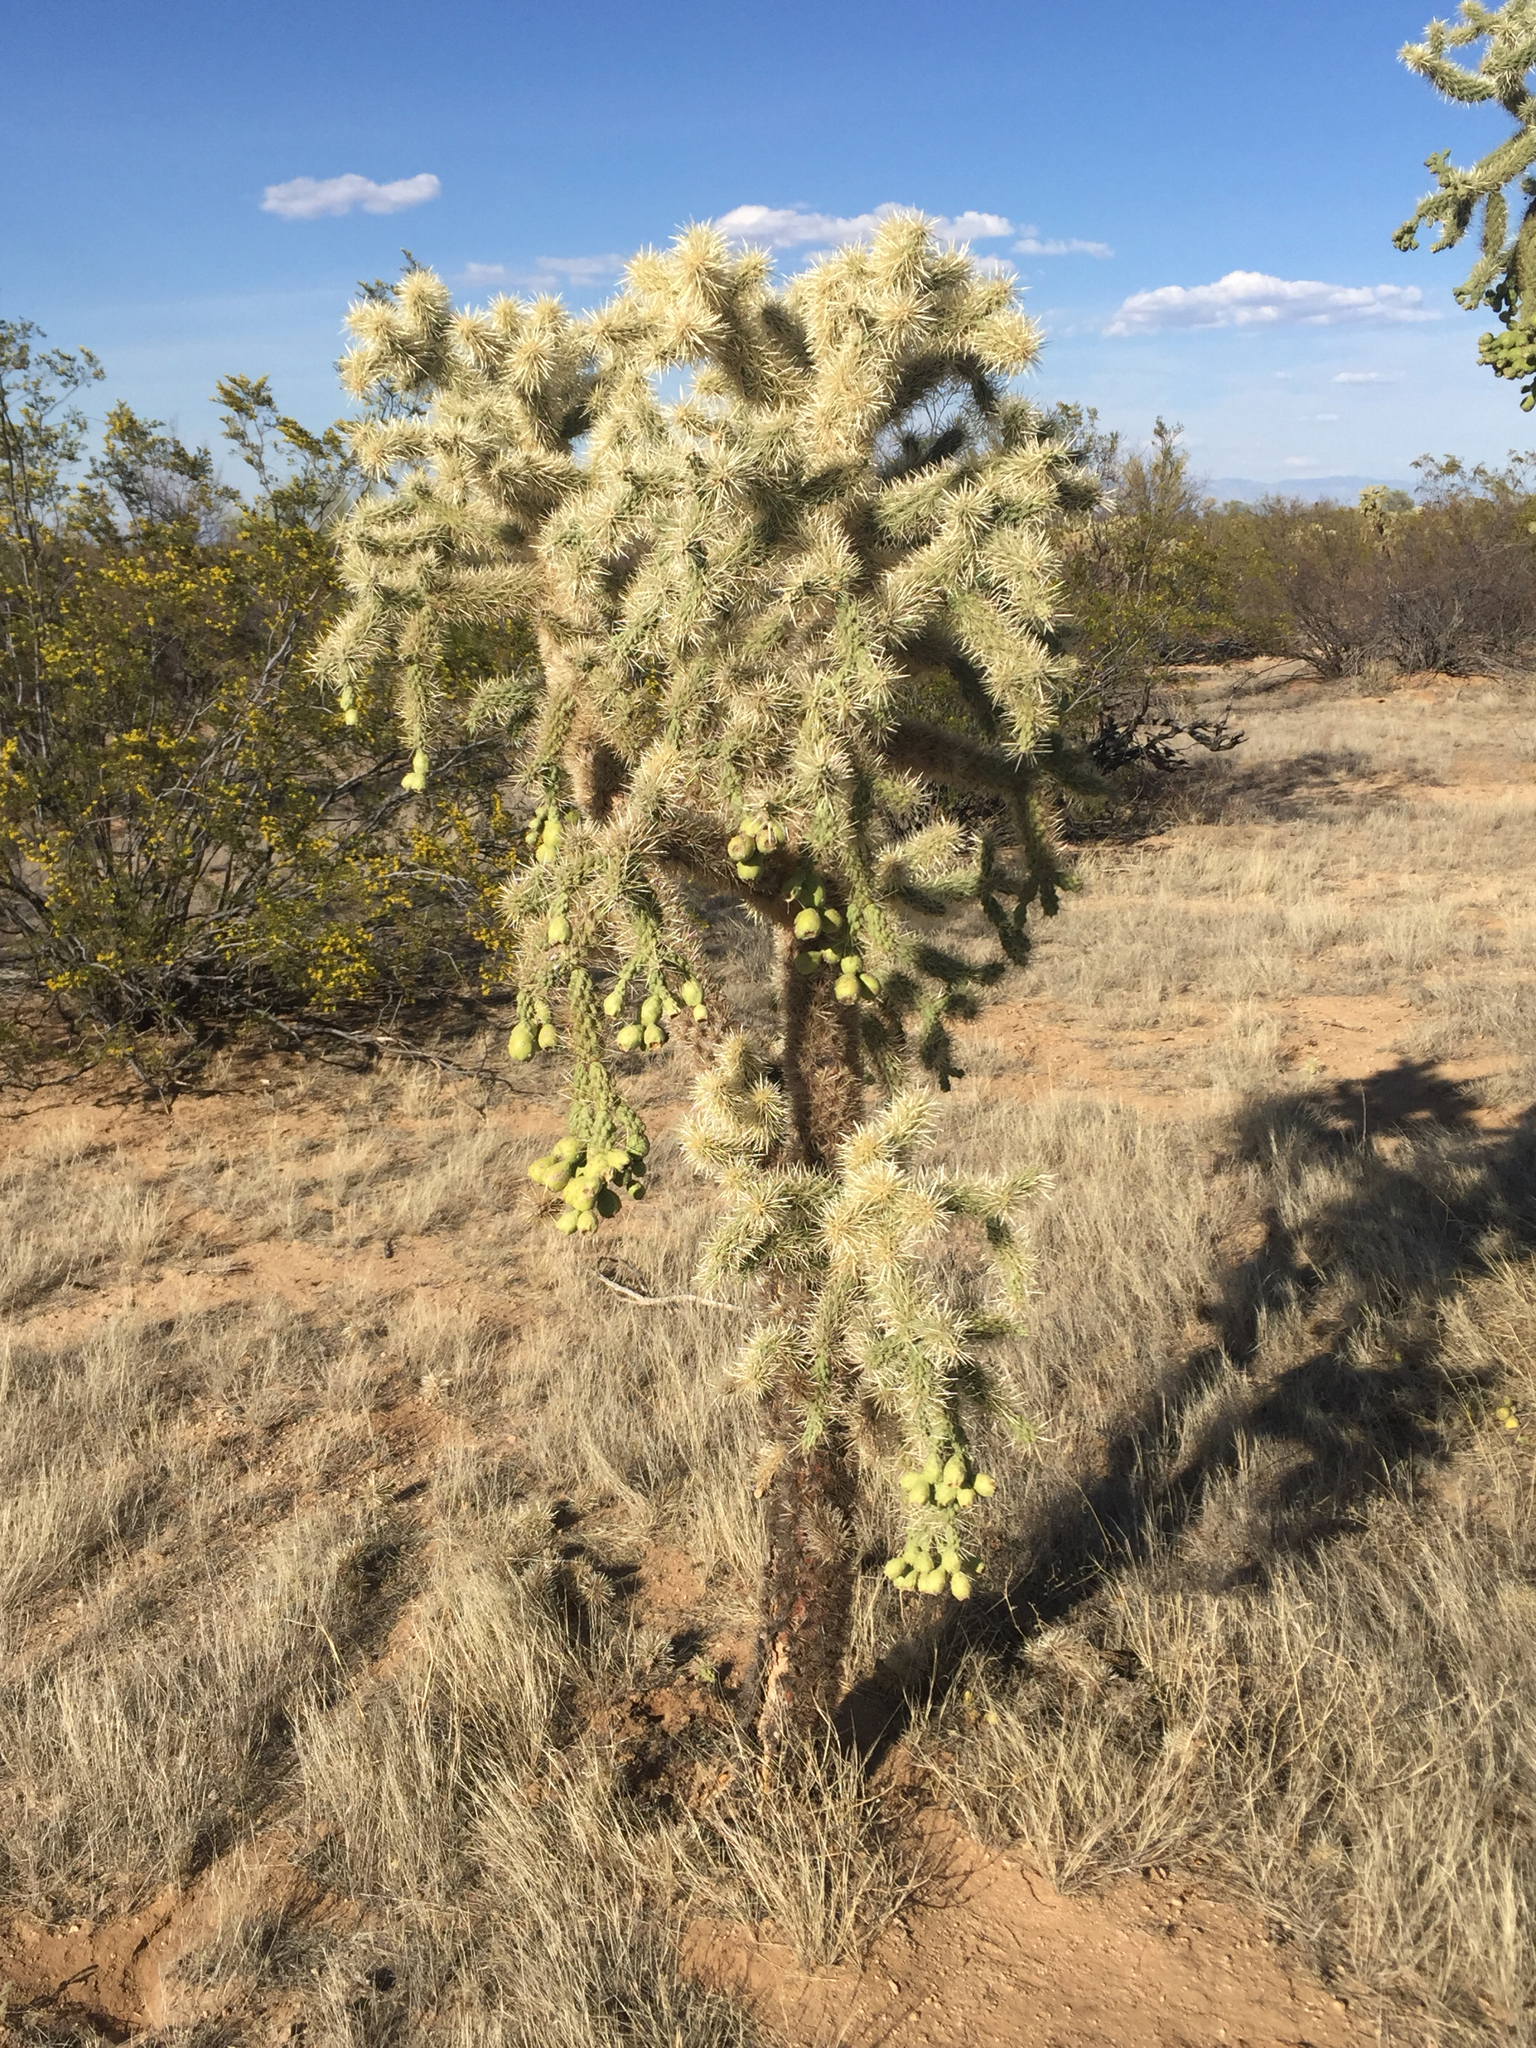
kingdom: Plantae
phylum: Tracheophyta
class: Magnoliopsida
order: Caryophyllales
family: Cactaceae
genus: Cylindropuntia
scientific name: Cylindropuntia fulgida
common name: Jumping cholla
